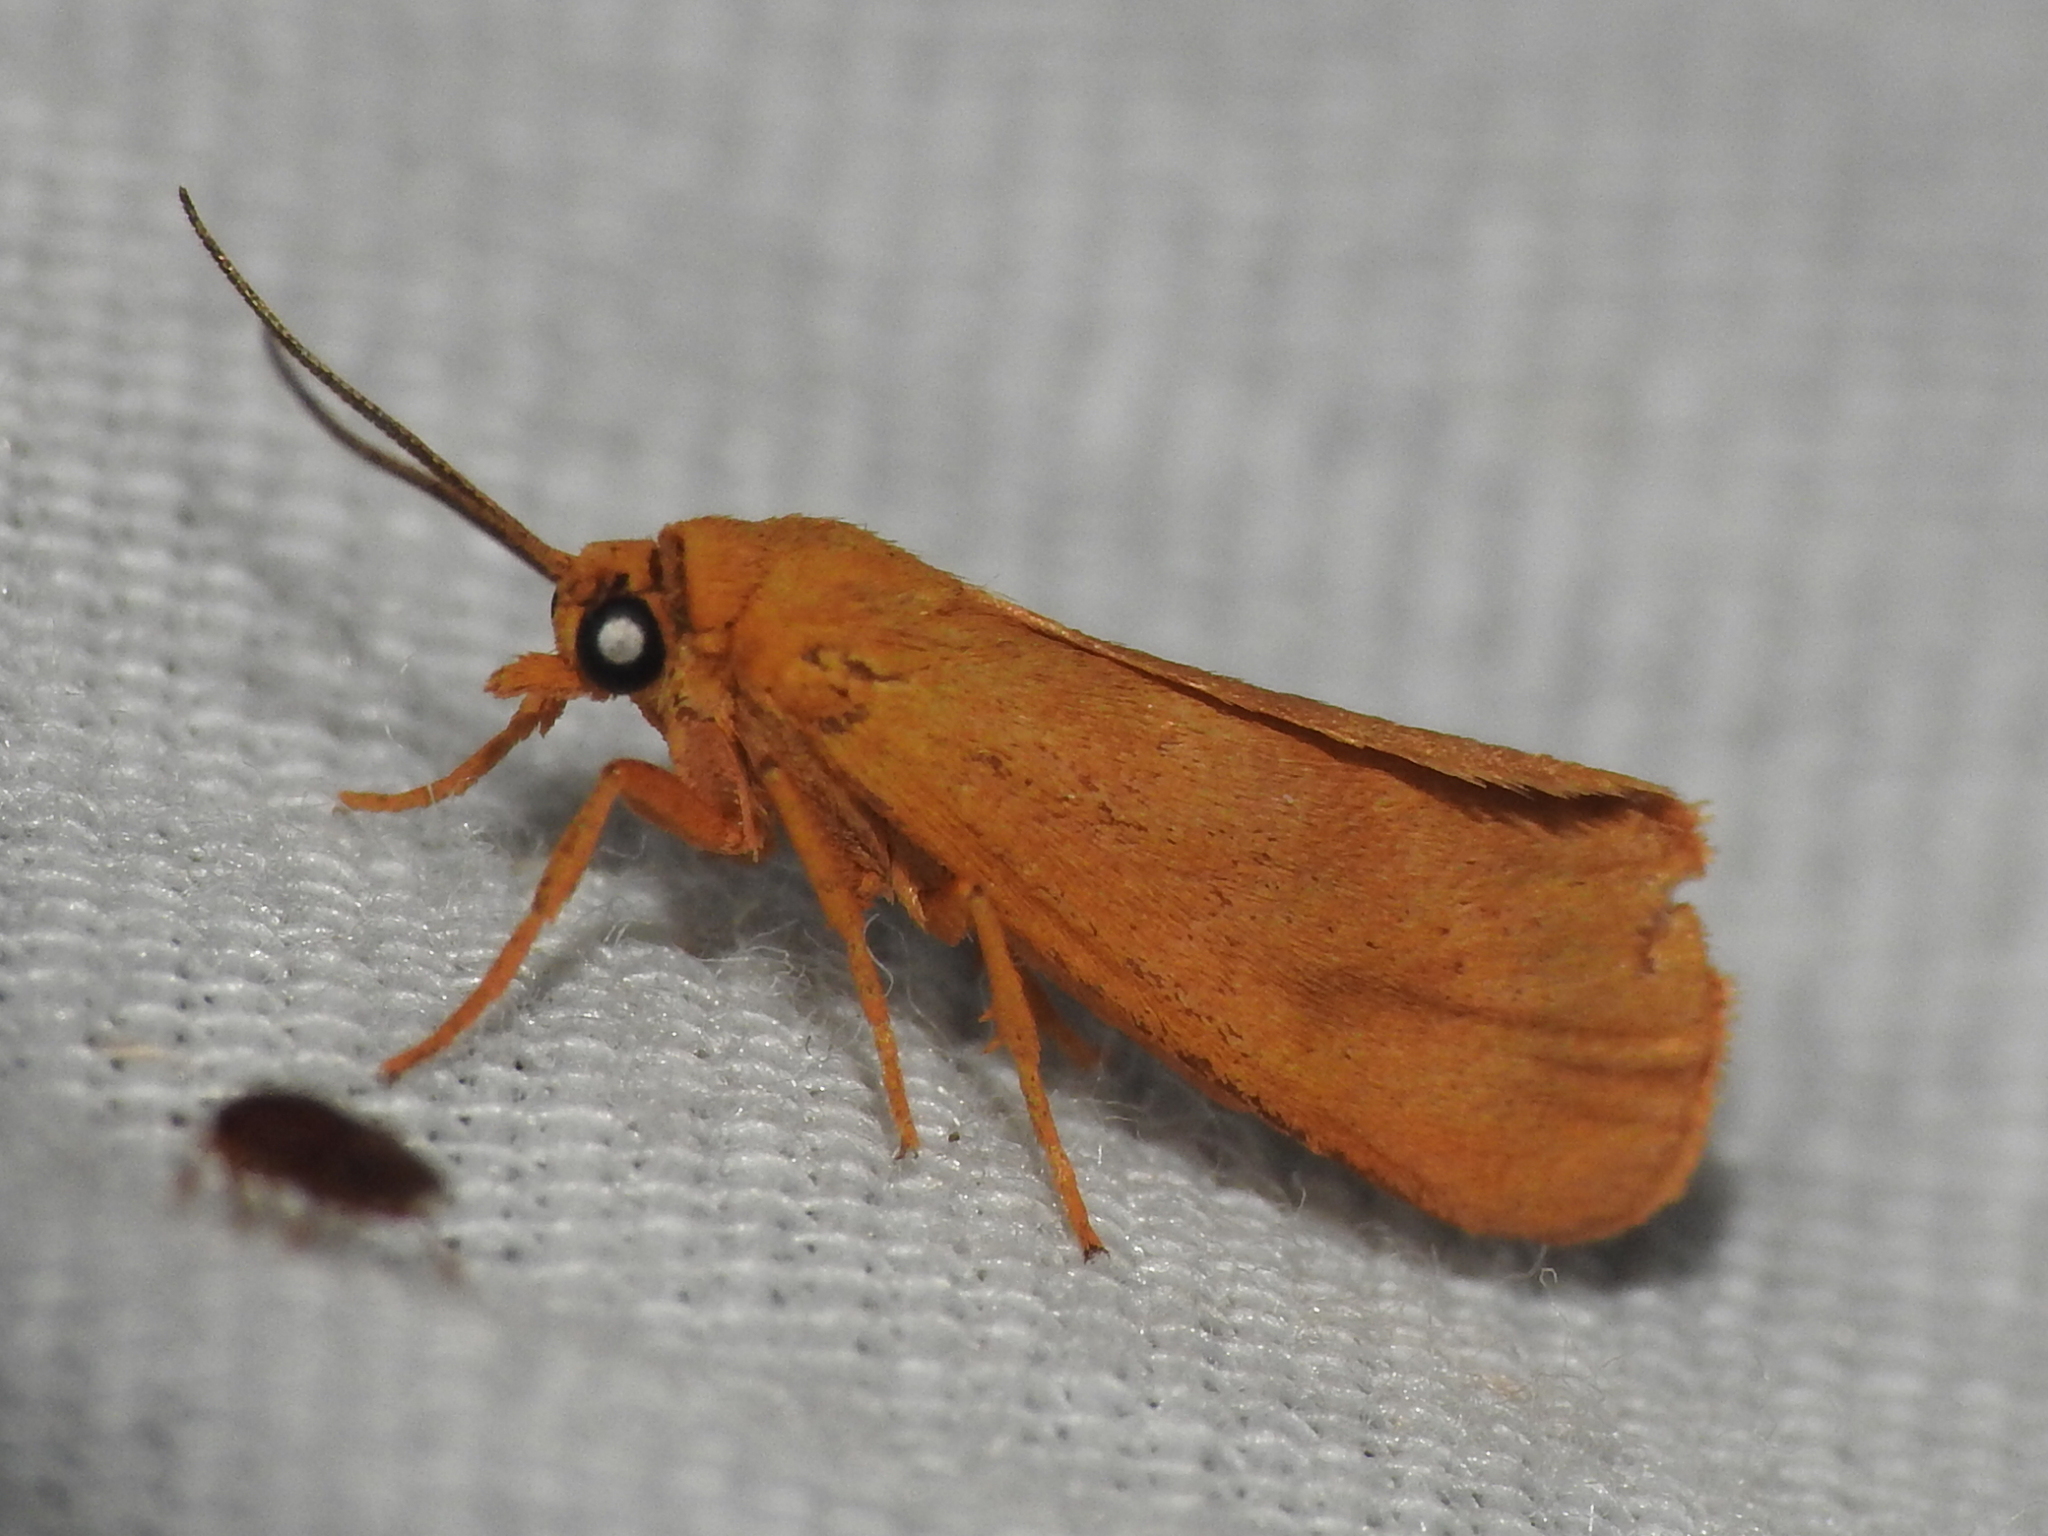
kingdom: Animalia
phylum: Arthropoda
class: Insecta
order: Lepidoptera
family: Erebidae
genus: Virbia
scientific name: Virbia aurantiaca
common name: Orange virbia moth
